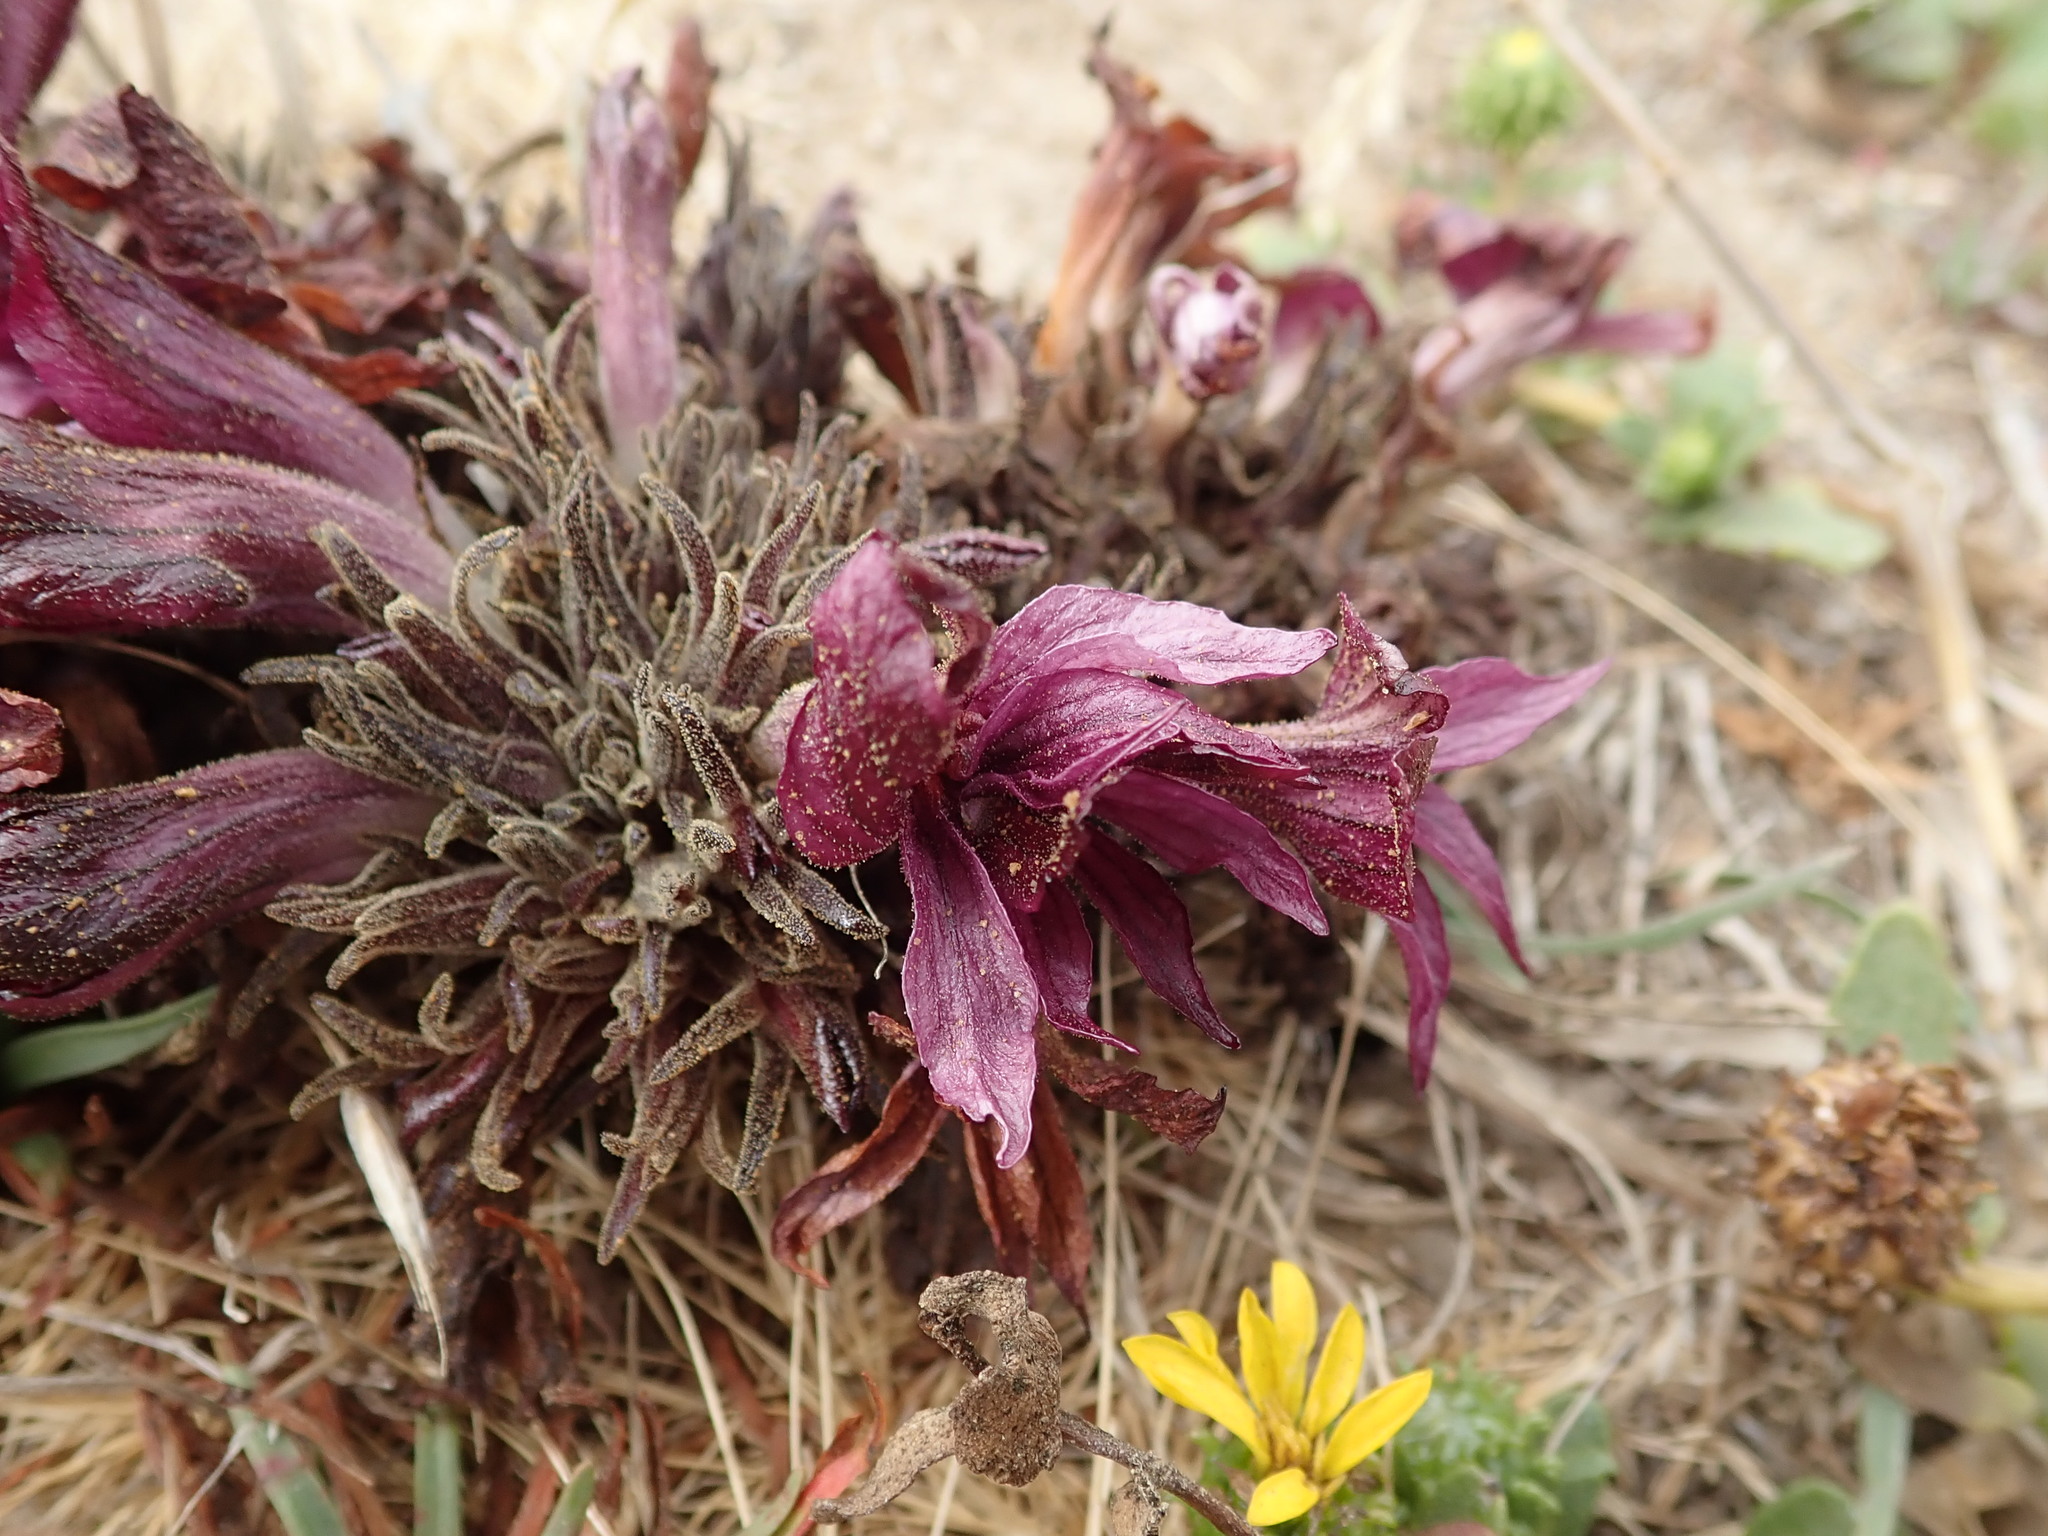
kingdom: Plantae
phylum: Tracheophyta
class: Magnoliopsida
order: Lamiales
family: Orobanchaceae
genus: Aphyllon
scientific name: Aphyllon californicum
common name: California broomrape
